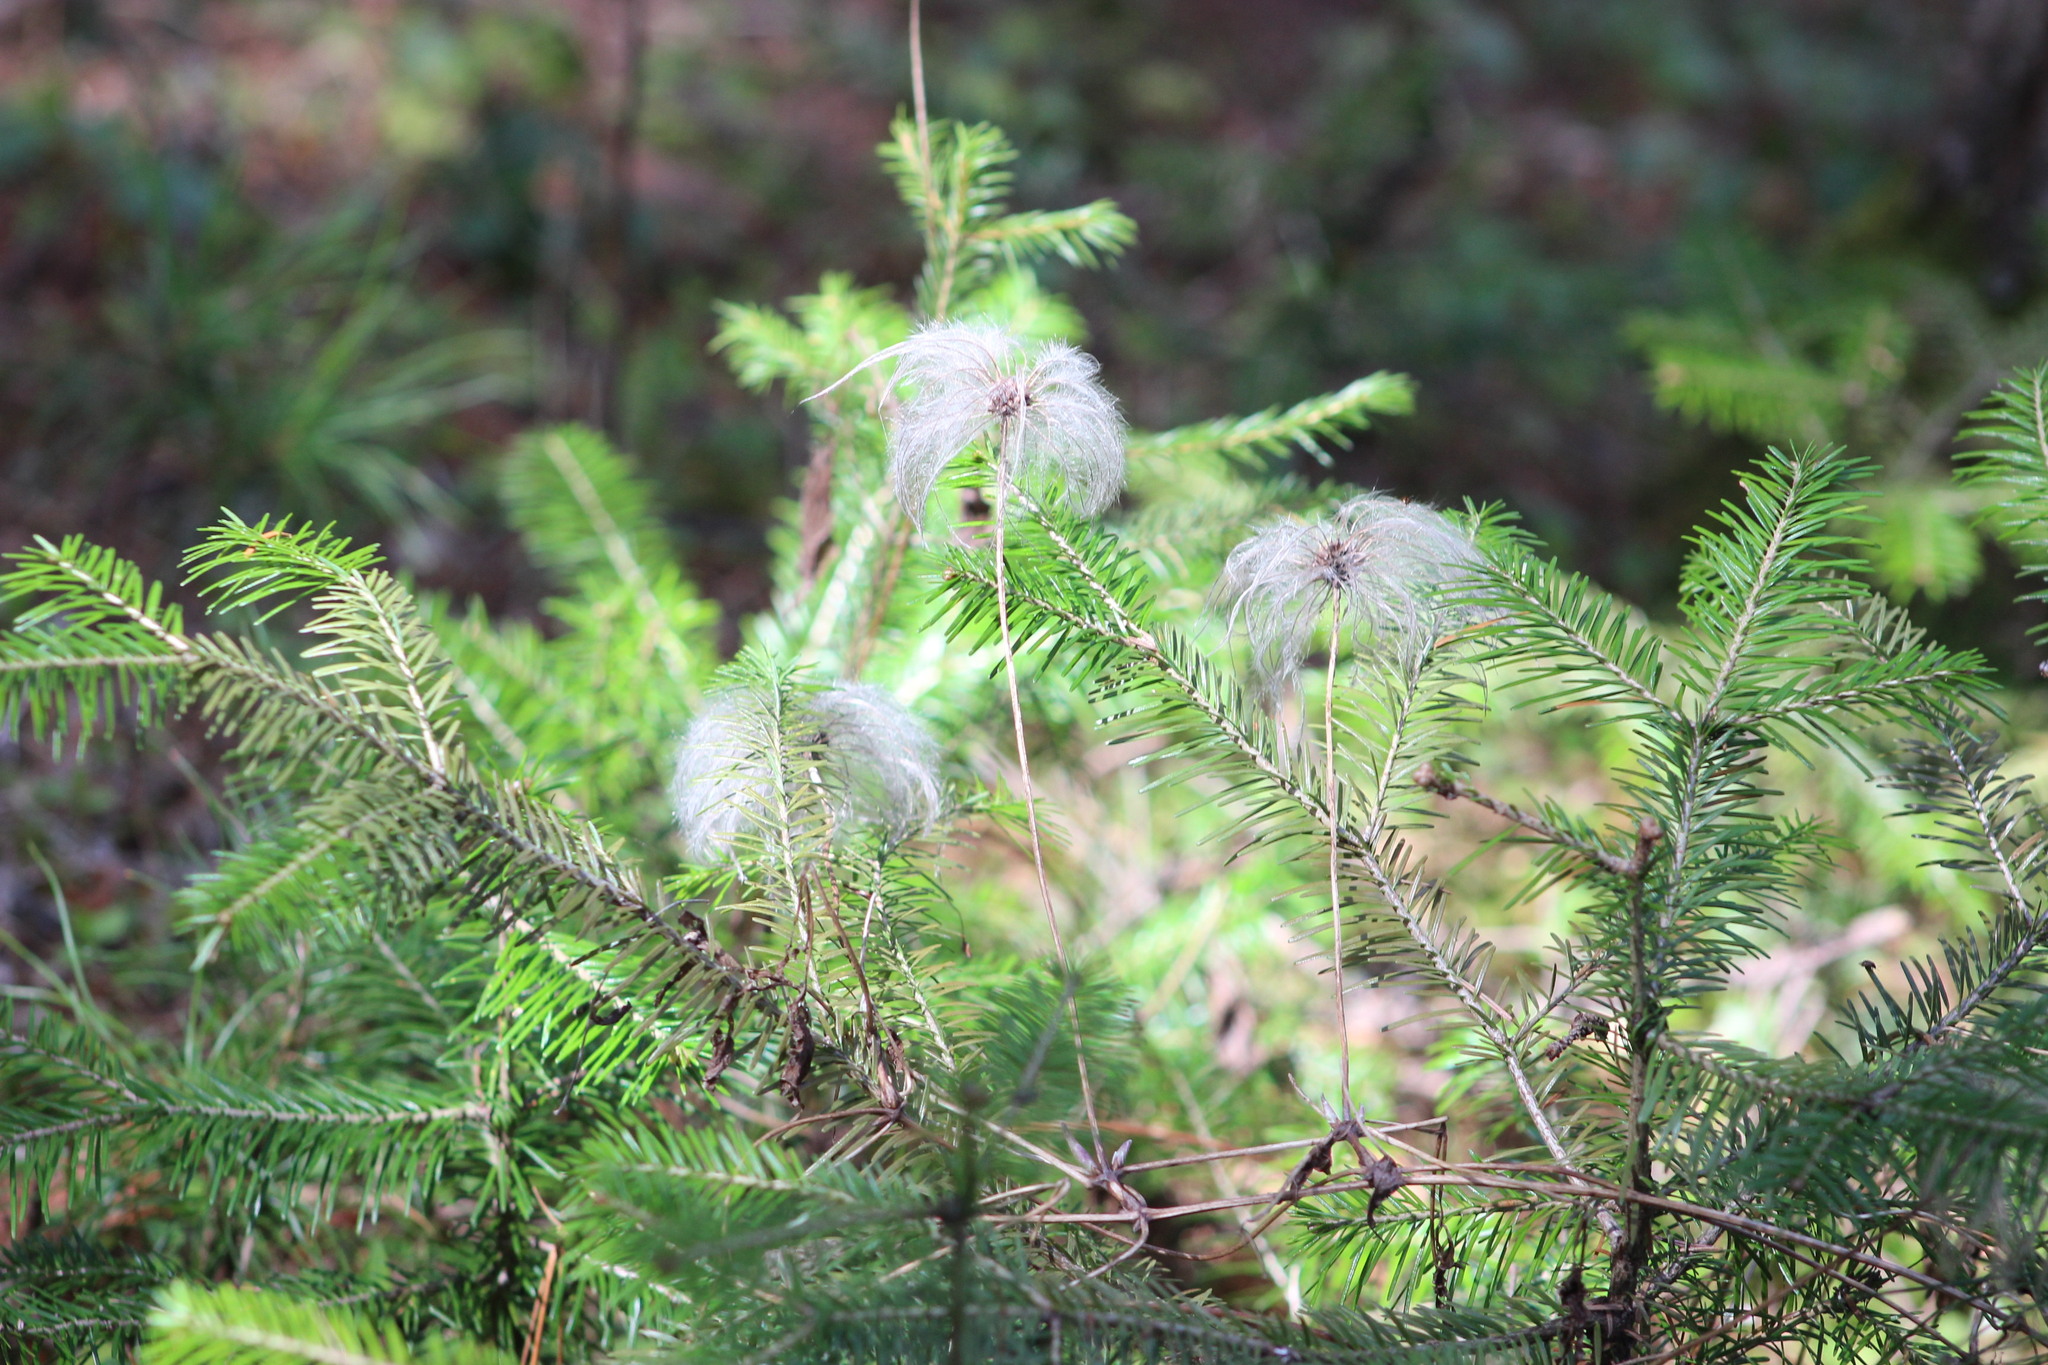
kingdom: Plantae
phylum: Tracheophyta
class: Magnoliopsida
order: Ranunculales
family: Ranunculaceae
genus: Clematis
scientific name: Clematis sibirica
